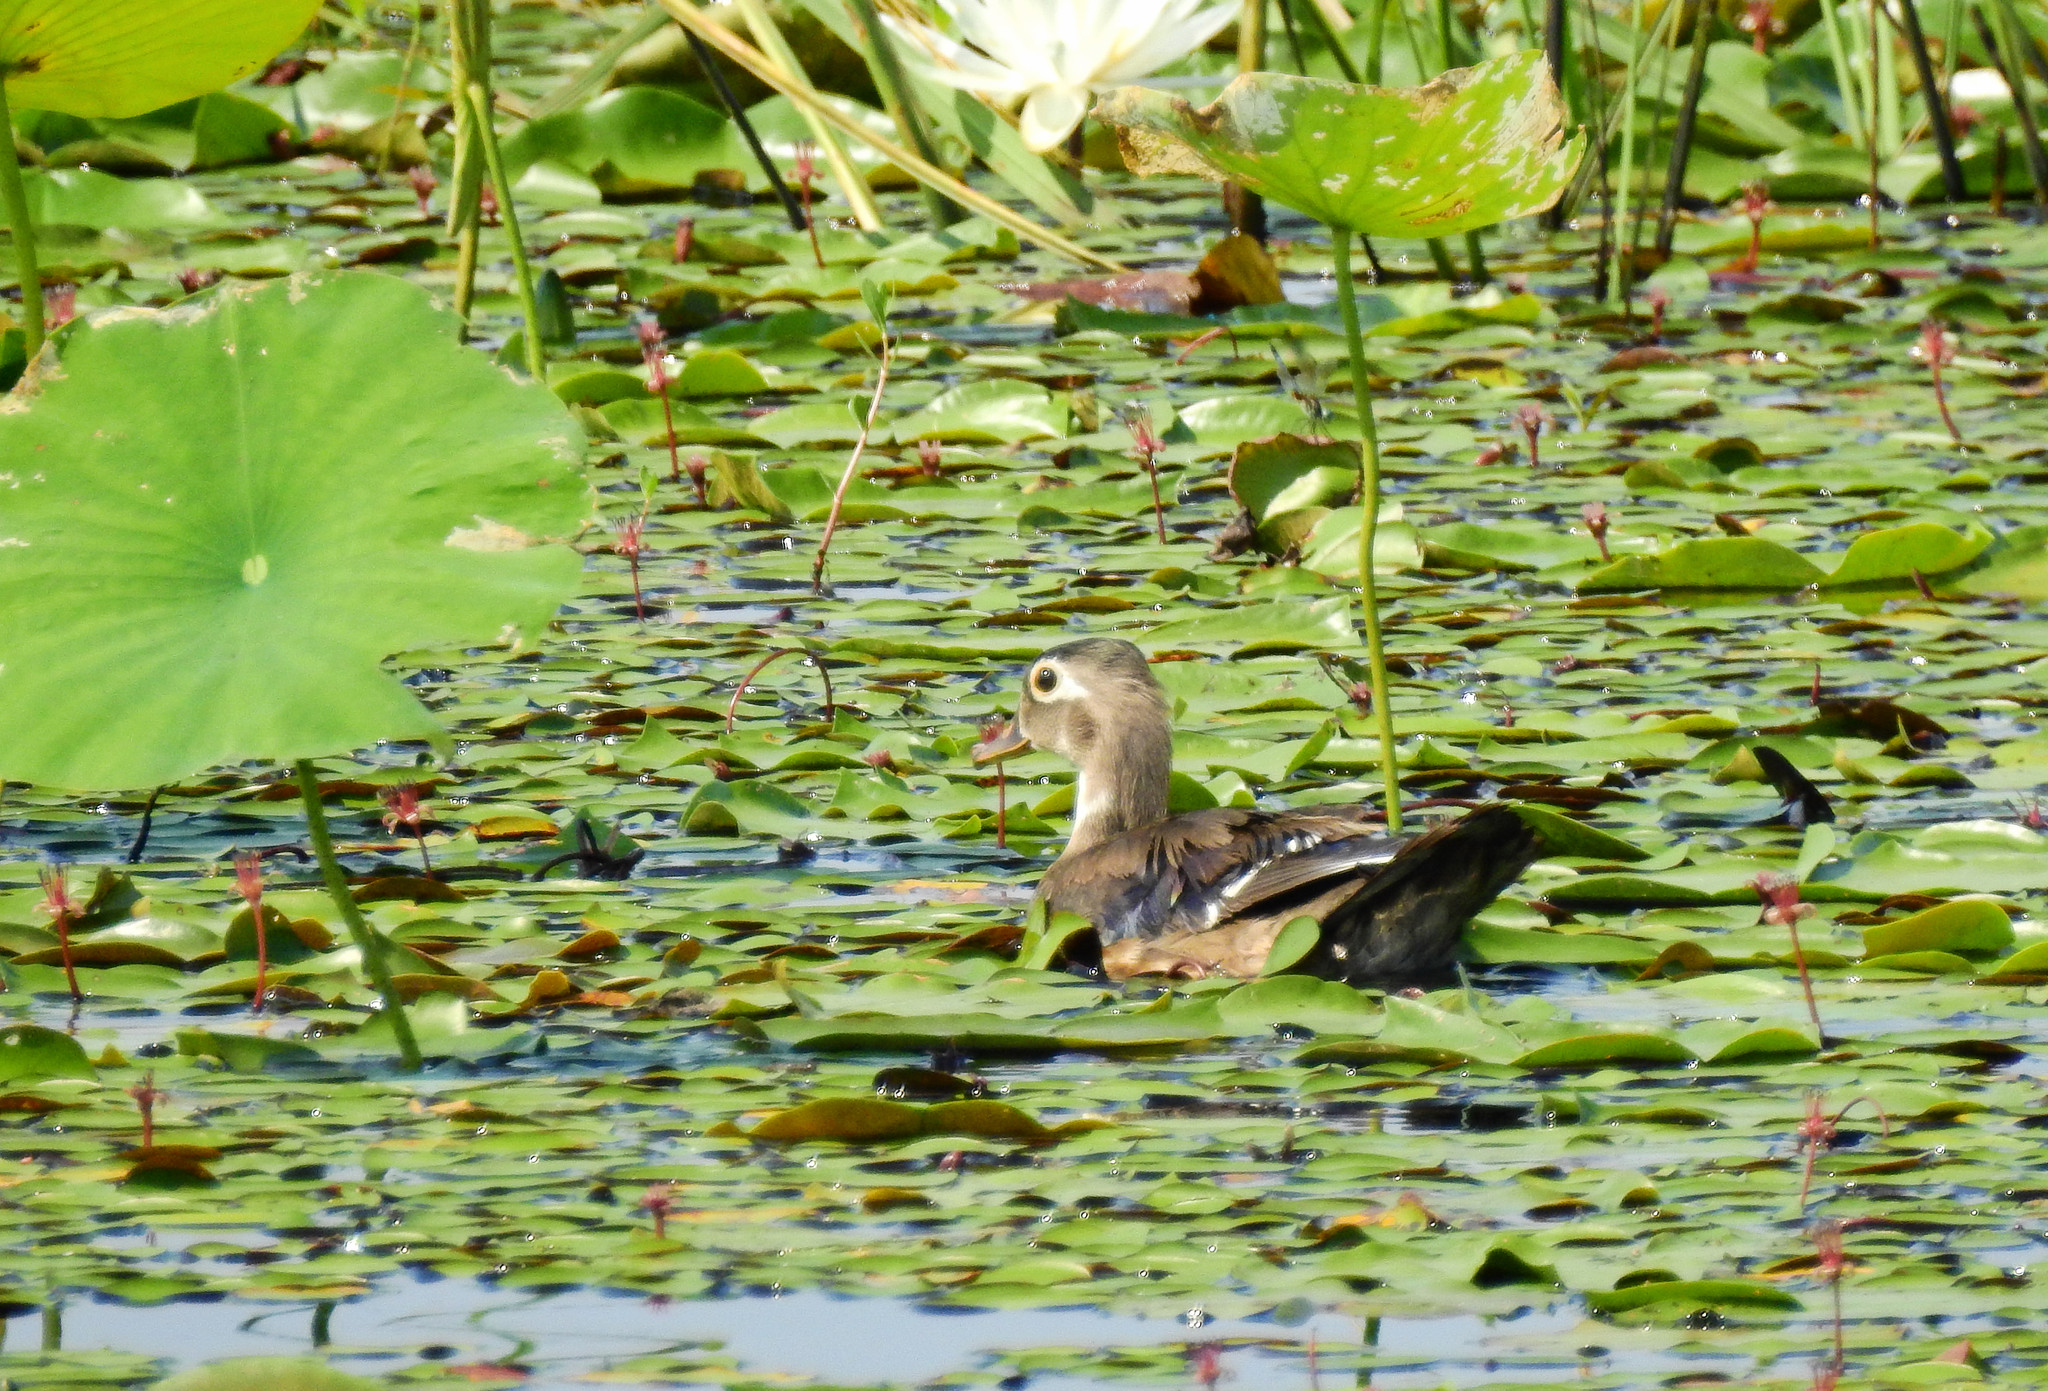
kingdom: Animalia
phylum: Chordata
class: Aves
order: Anseriformes
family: Anatidae
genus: Aix
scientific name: Aix sponsa
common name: Wood duck
